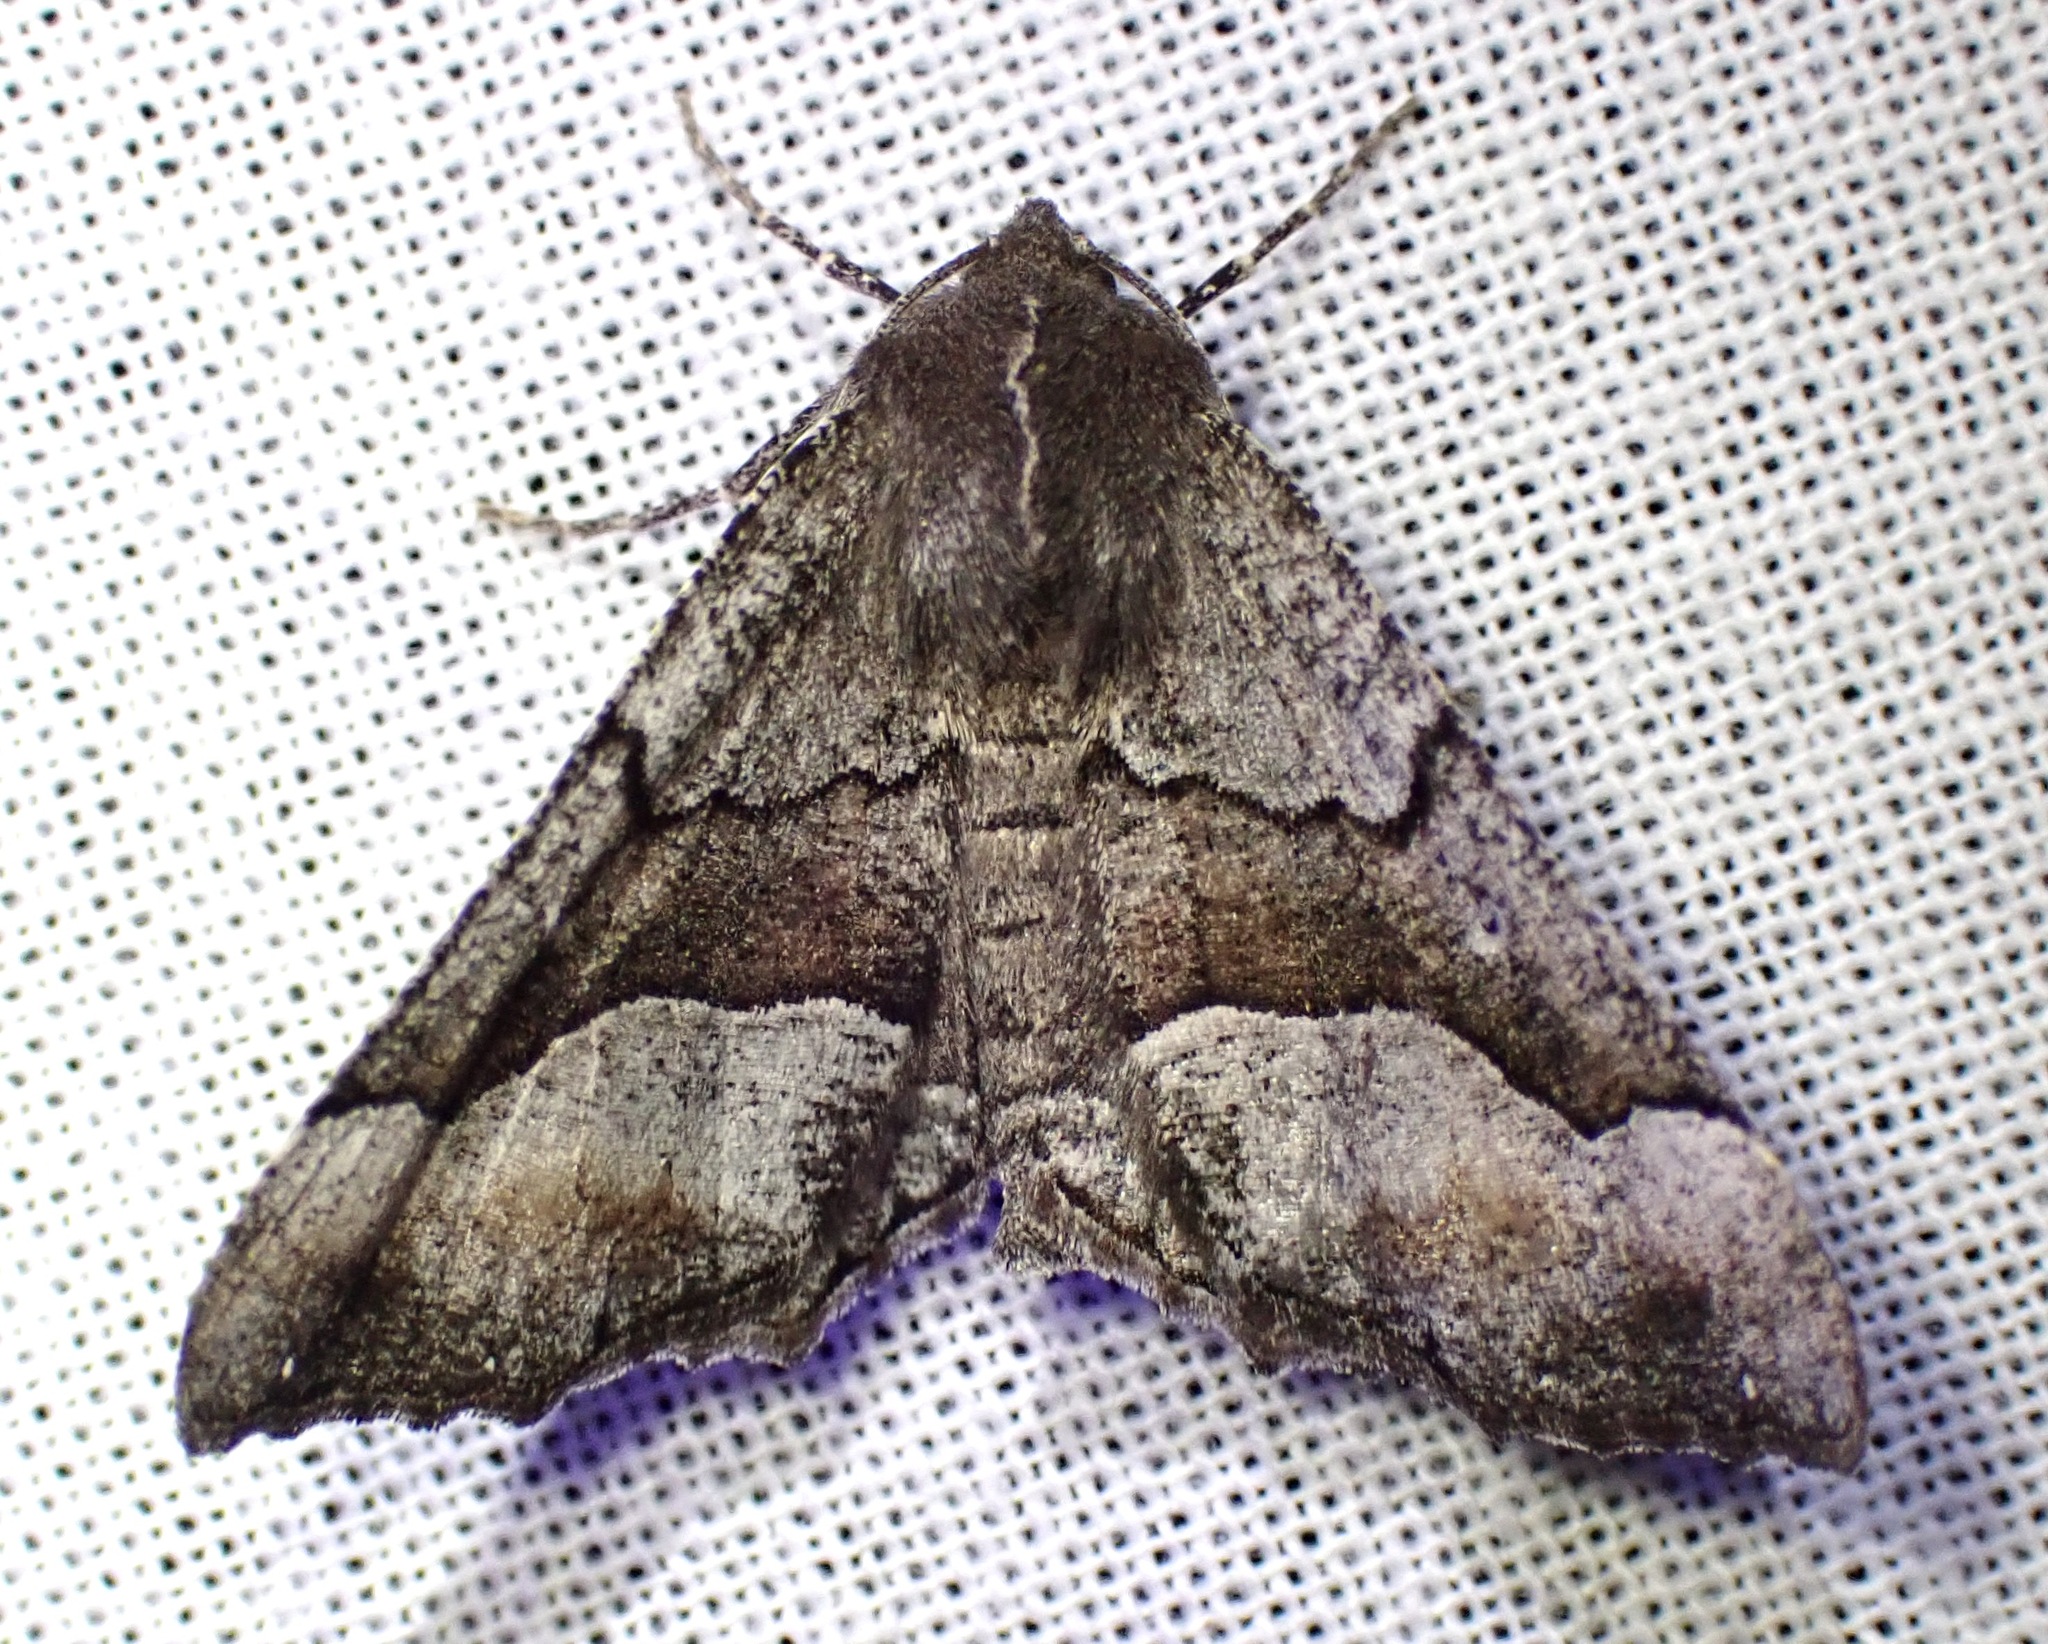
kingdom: Animalia
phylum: Arthropoda
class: Insecta
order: Lepidoptera
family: Geometridae
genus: Pero
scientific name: Pero behrensaria
